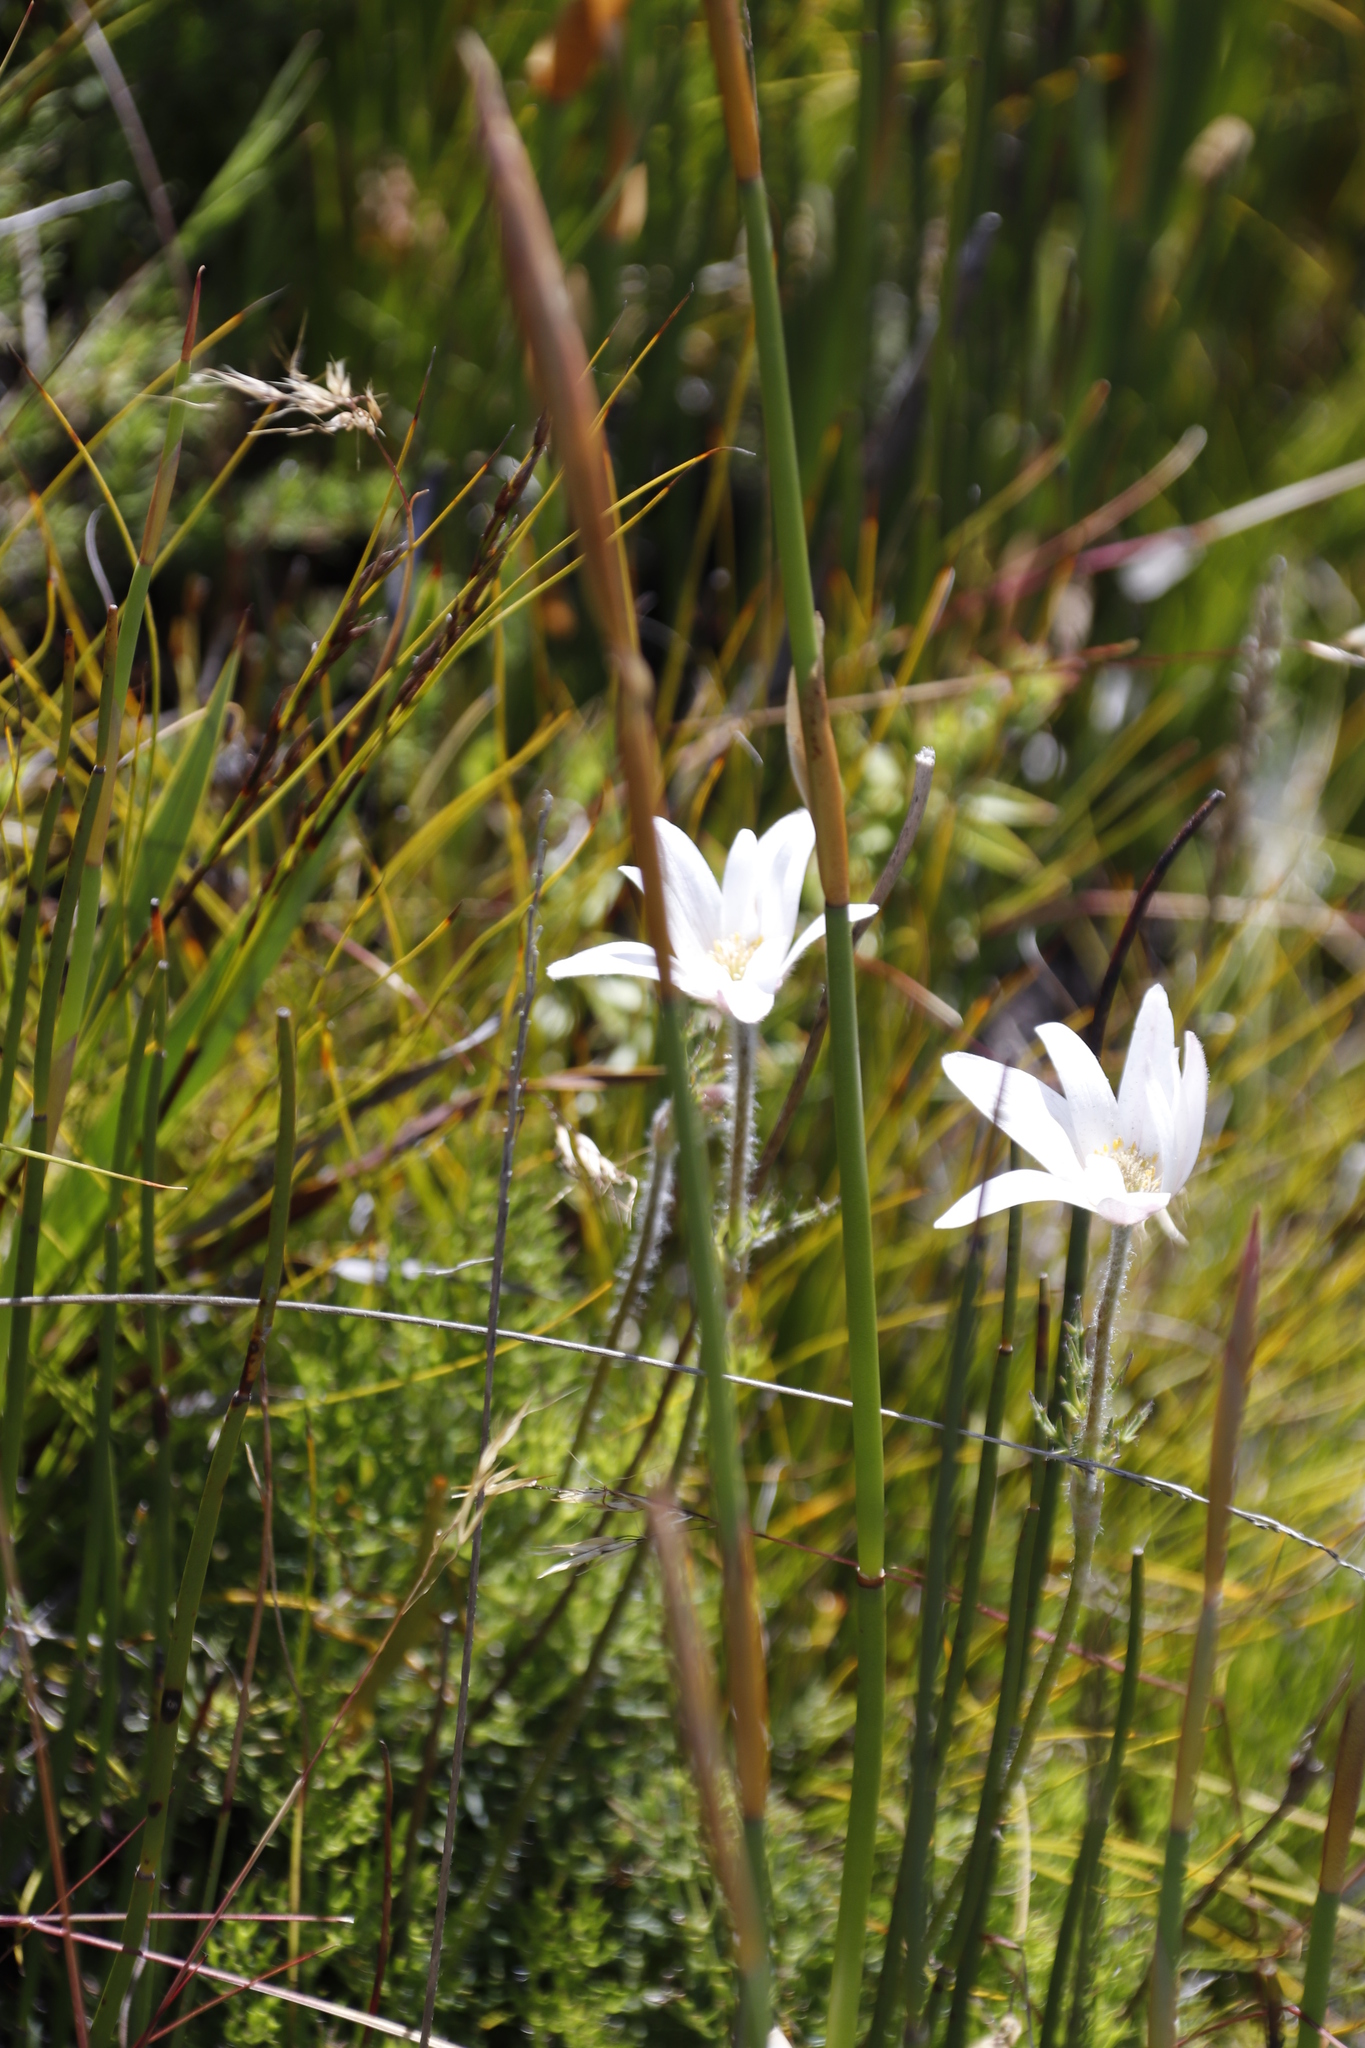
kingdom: Plantae
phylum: Tracheophyta
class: Magnoliopsida
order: Ranunculales
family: Ranunculaceae
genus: Knowltonia
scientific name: Knowltonia tenuifolia
